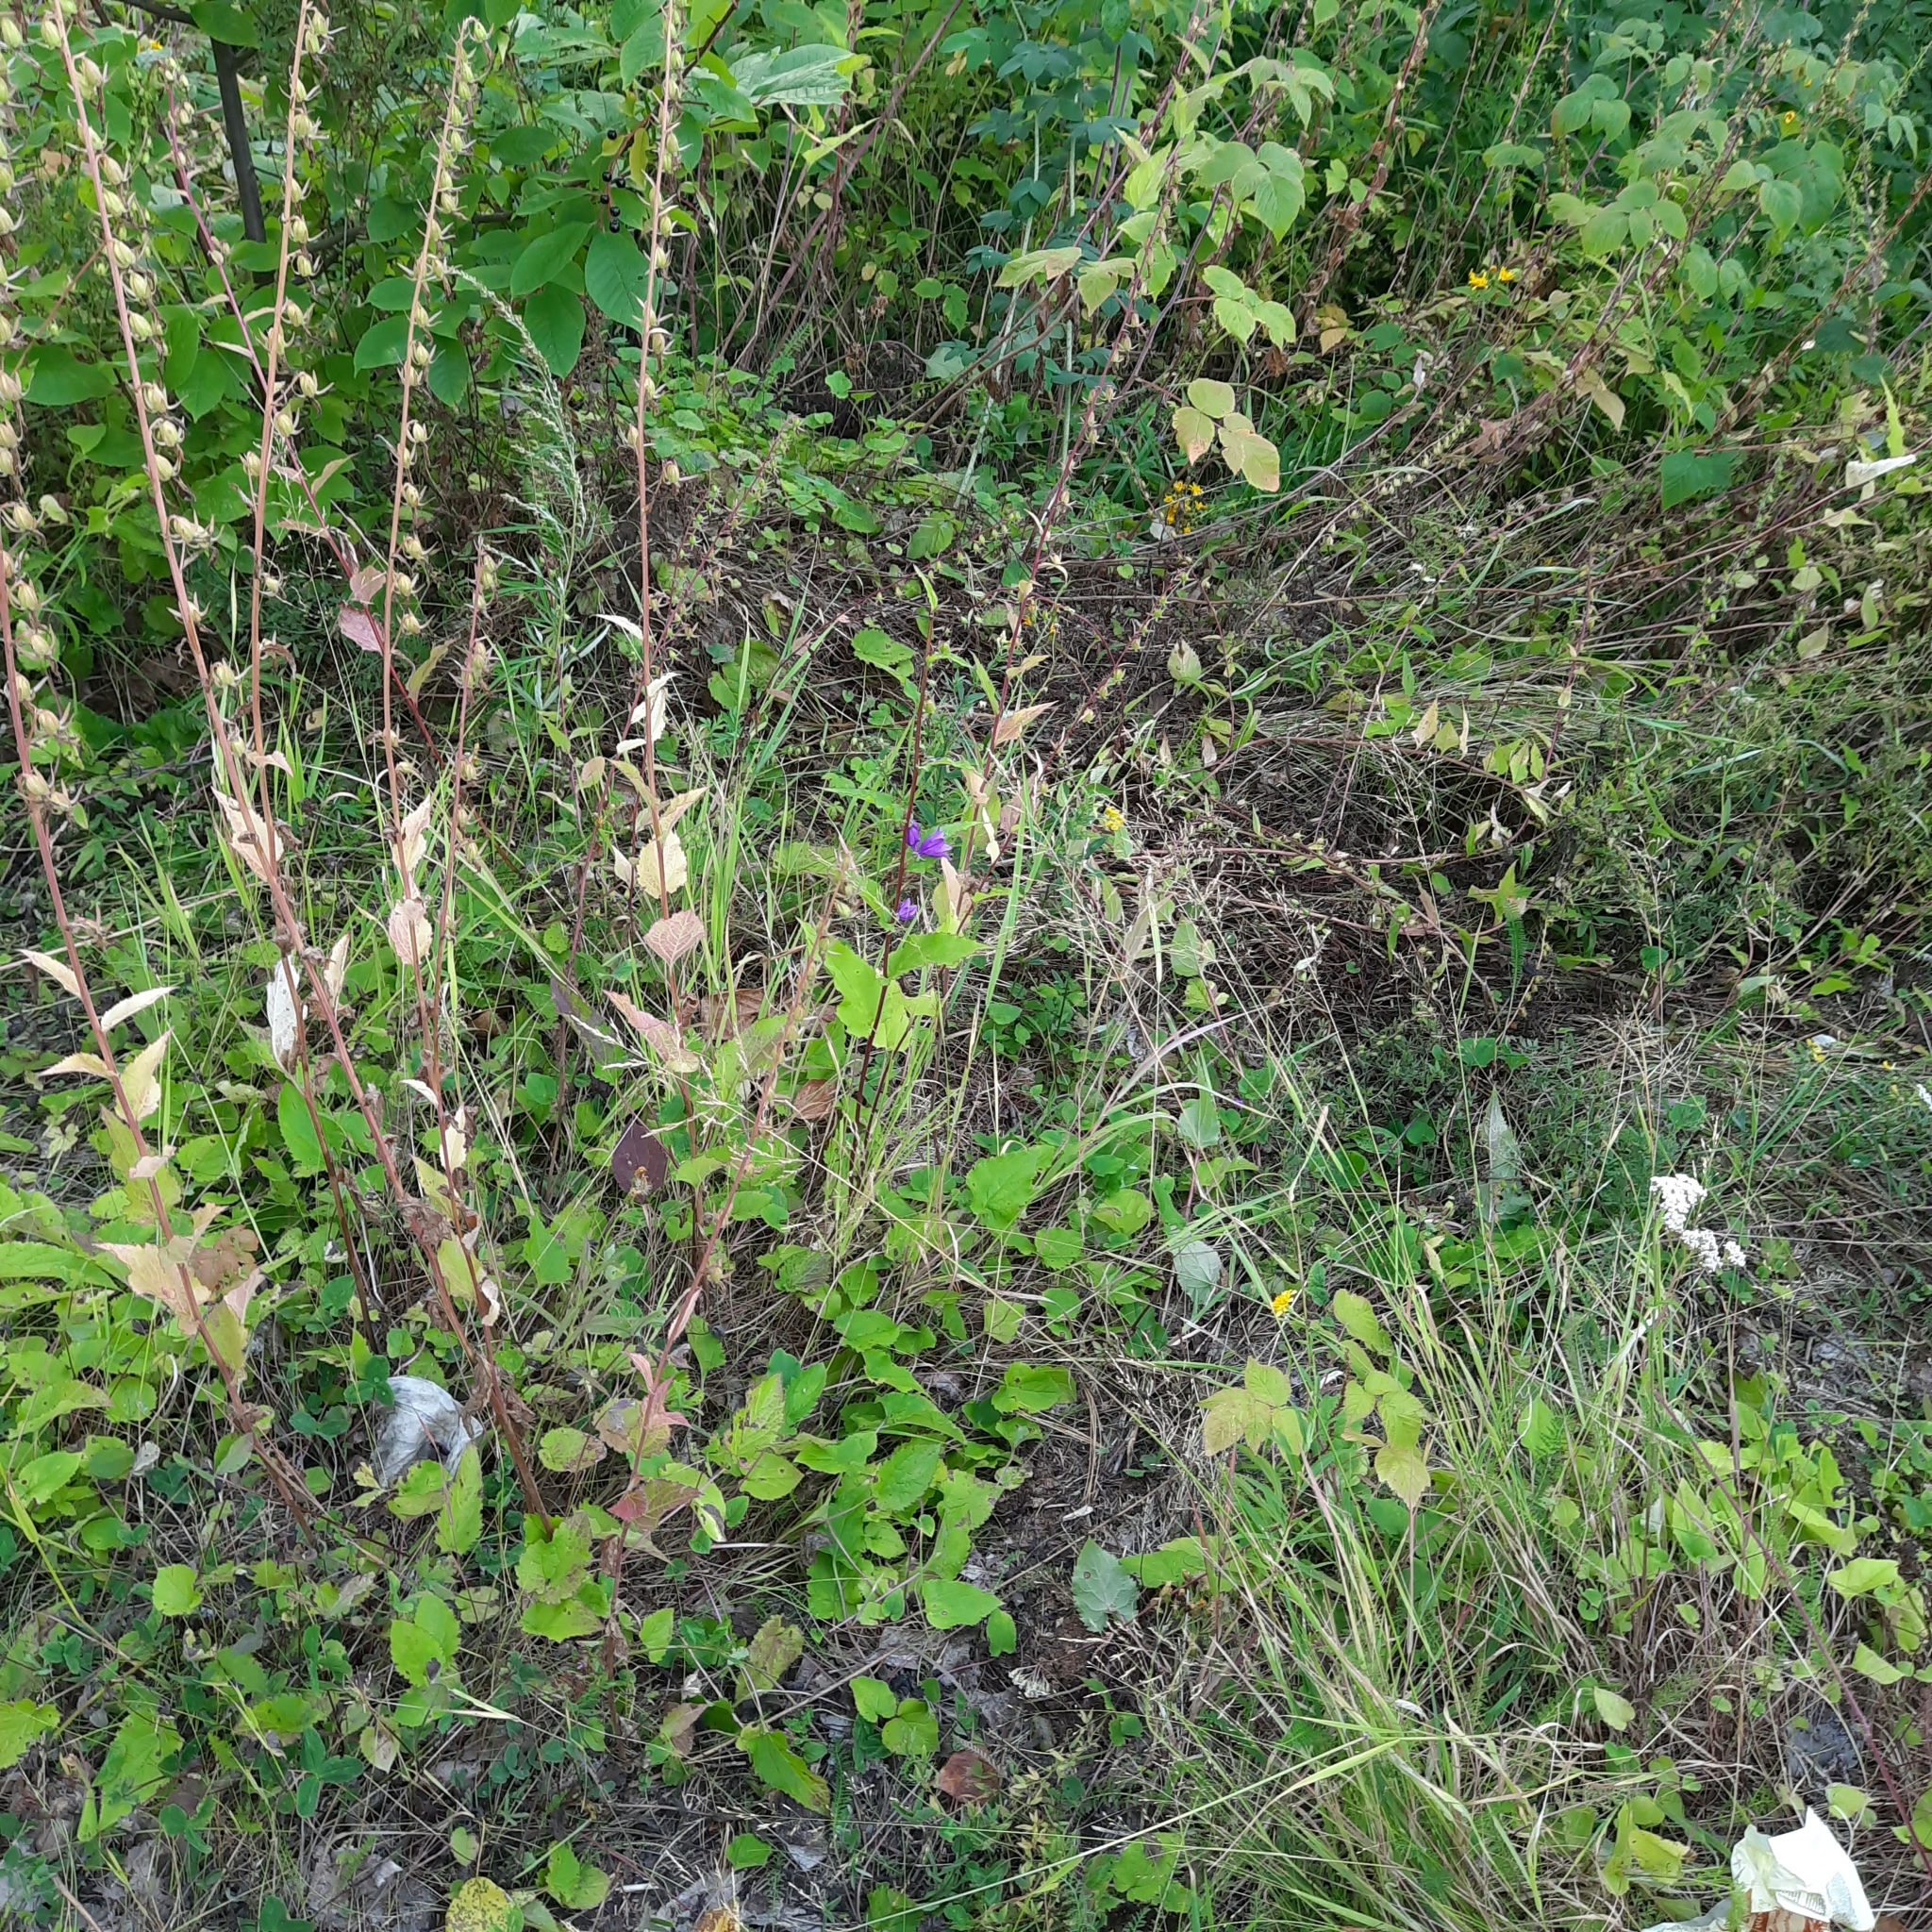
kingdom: Plantae
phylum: Tracheophyta
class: Magnoliopsida
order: Asterales
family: Campanulaceae
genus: Campanula
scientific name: Campanula rapunculoides
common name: Creeping bellflower
